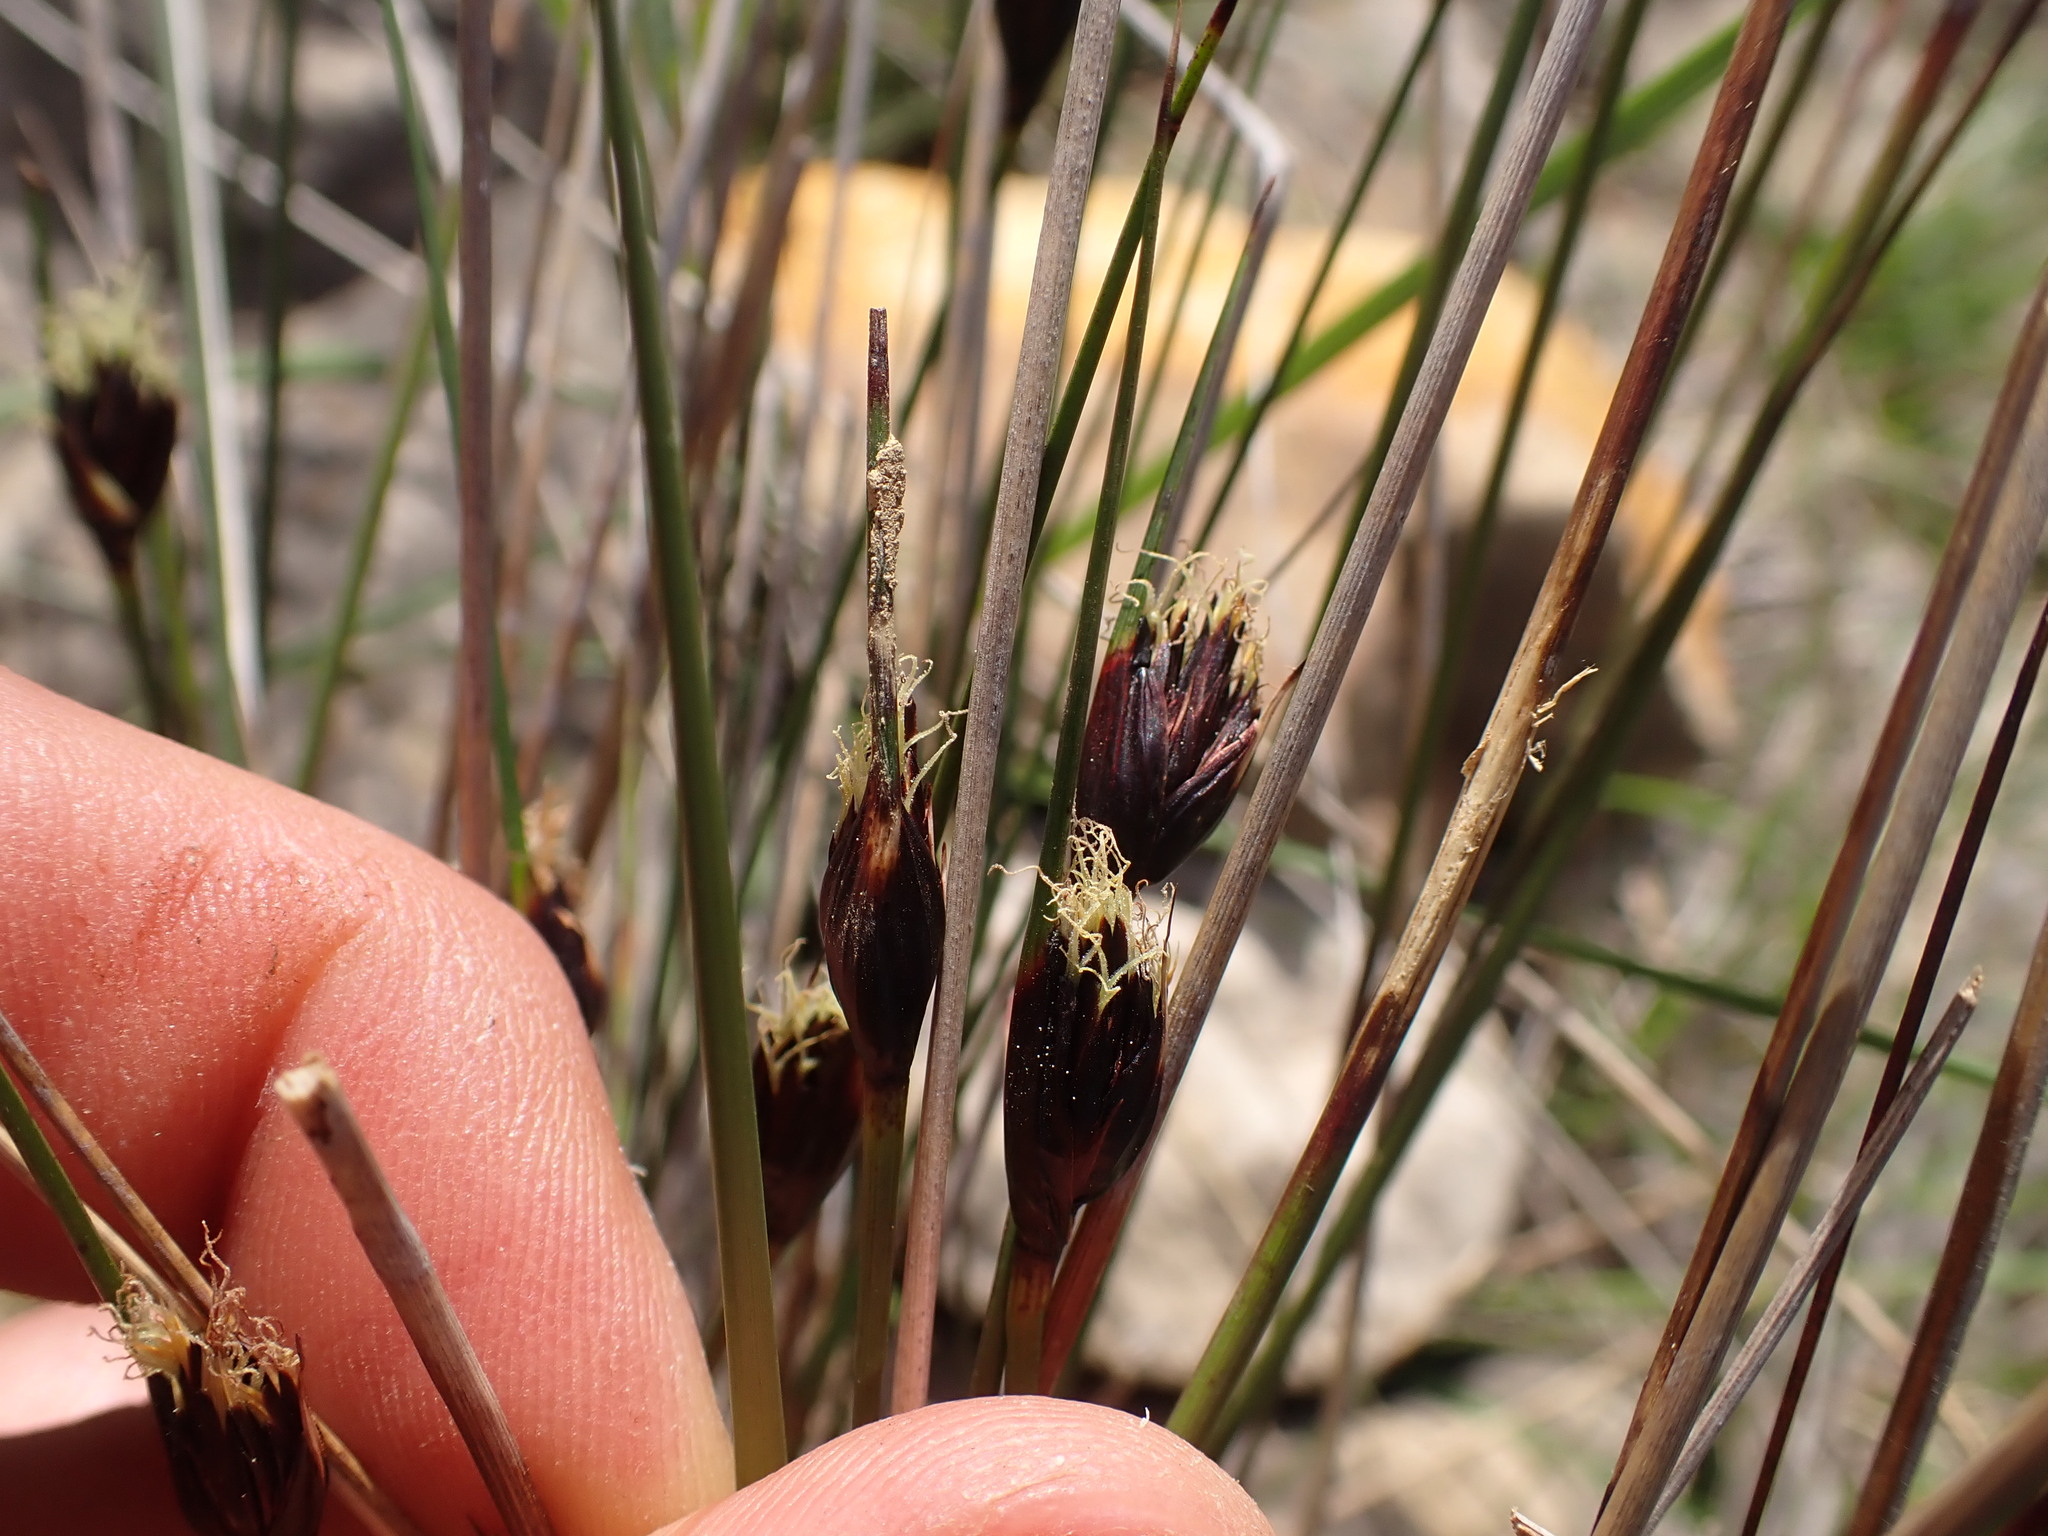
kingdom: Plantae
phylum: Tracheophyta
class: Liliopsida
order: Poales
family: Cyperaceae
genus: Schoenus
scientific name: Schoenus nigricans
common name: Black bog-rush
